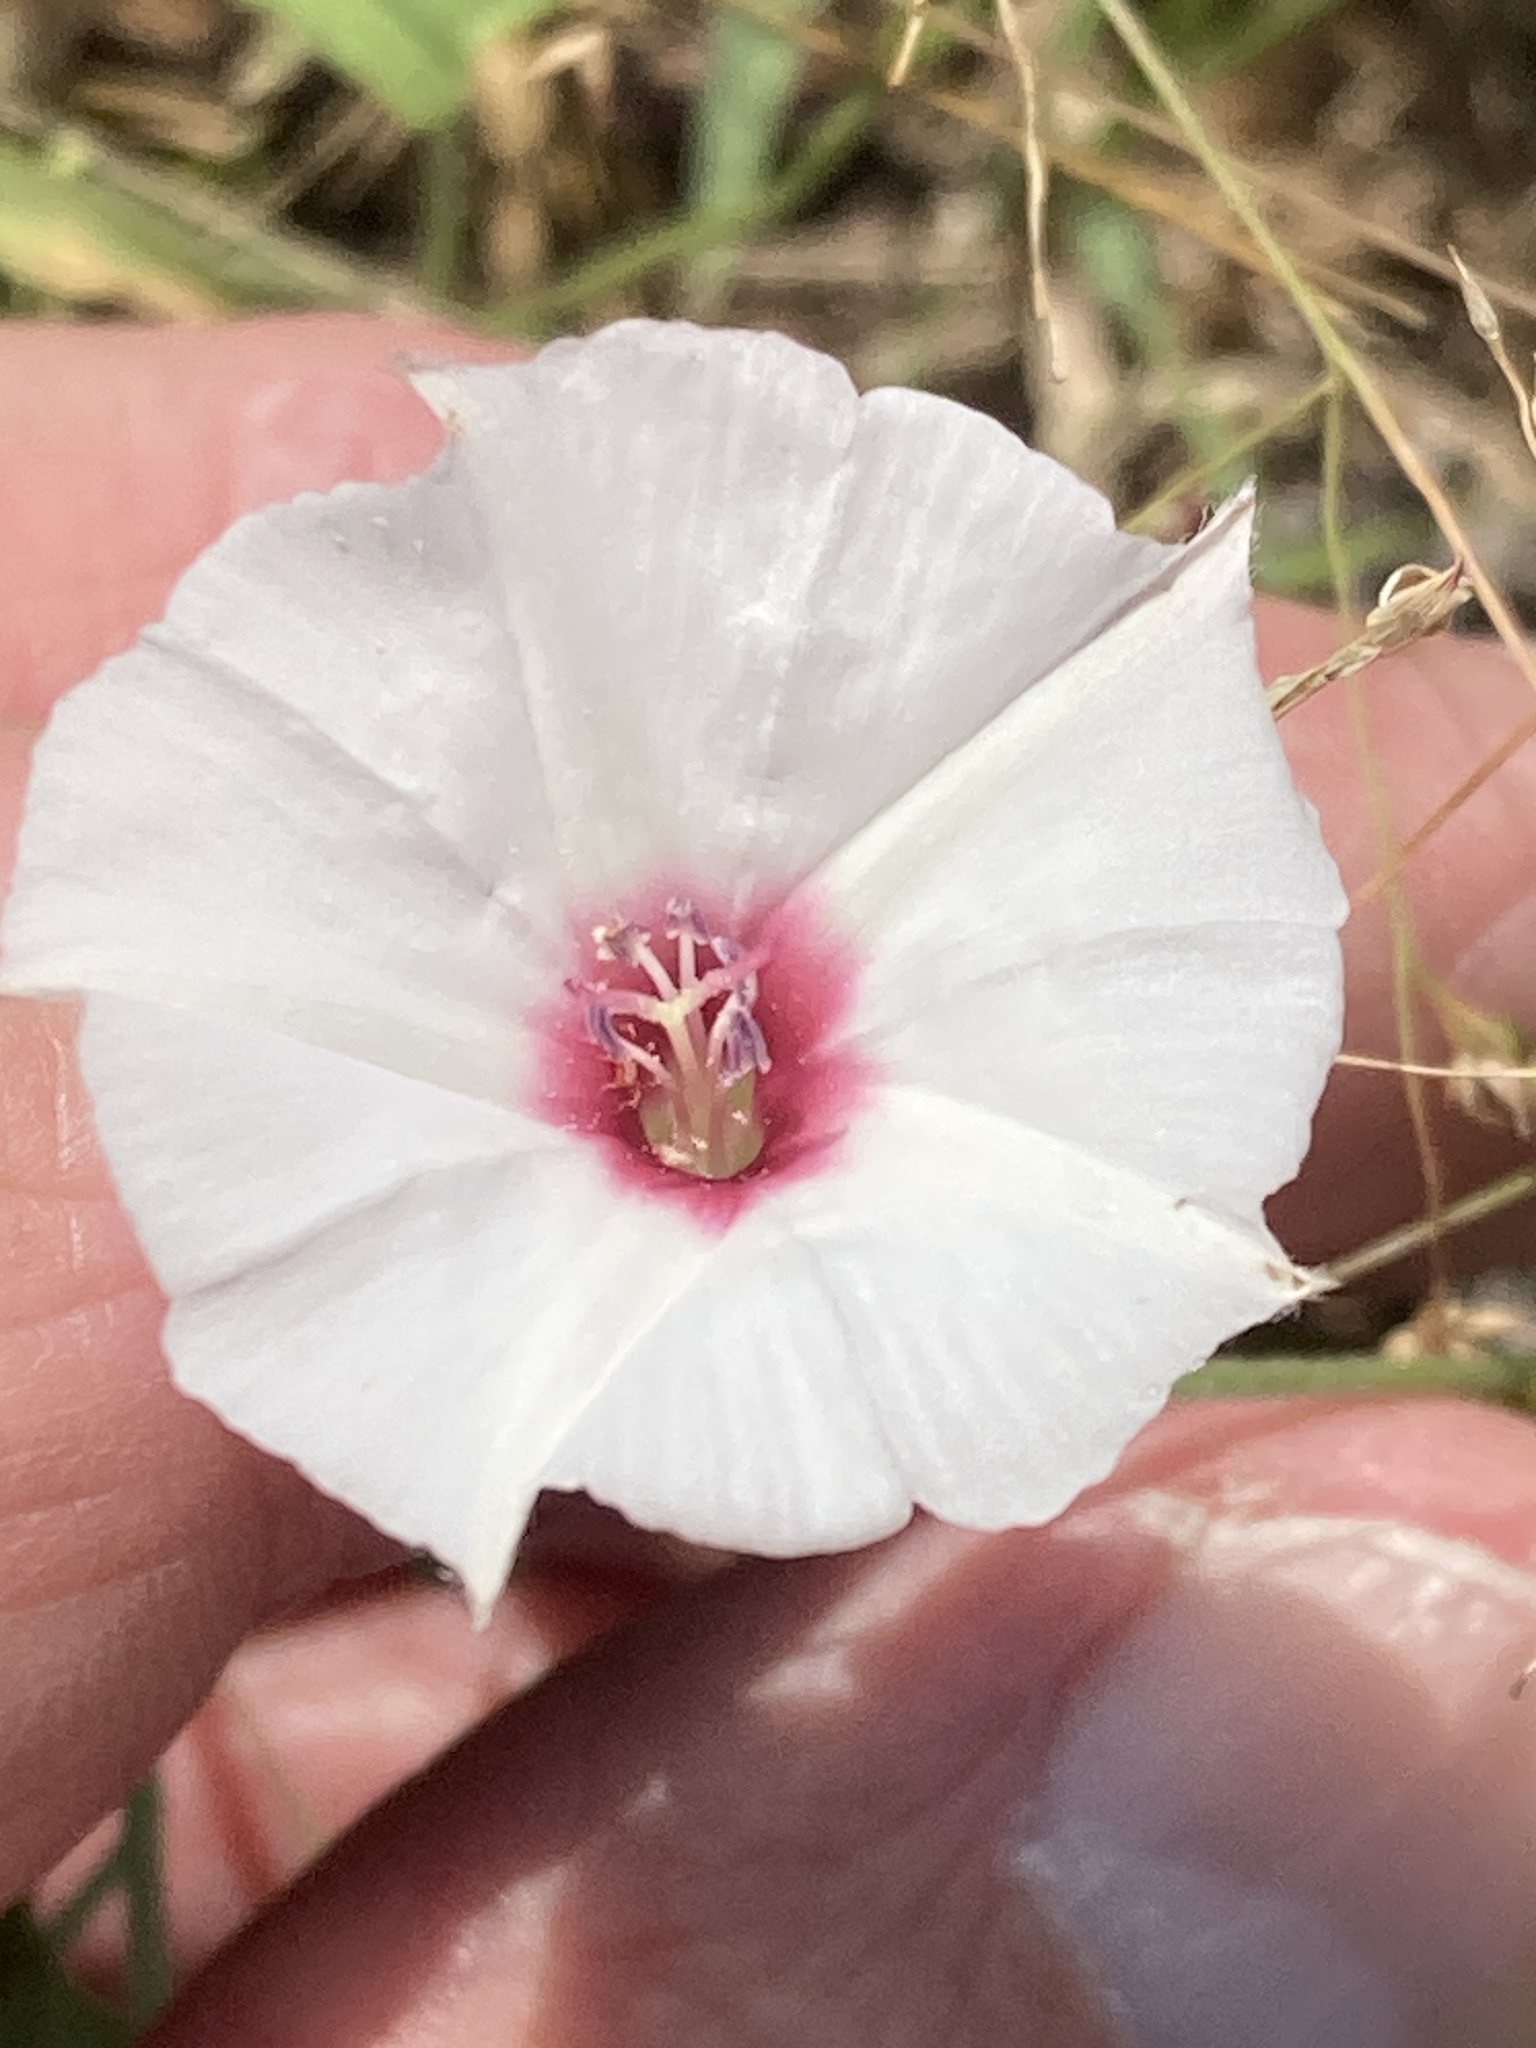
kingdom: Plantae
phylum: Tracheophyta
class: Magnoliopsida
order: Solanales
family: Convolvulaceae
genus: Convolvulus
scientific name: Convolvulus equitans
